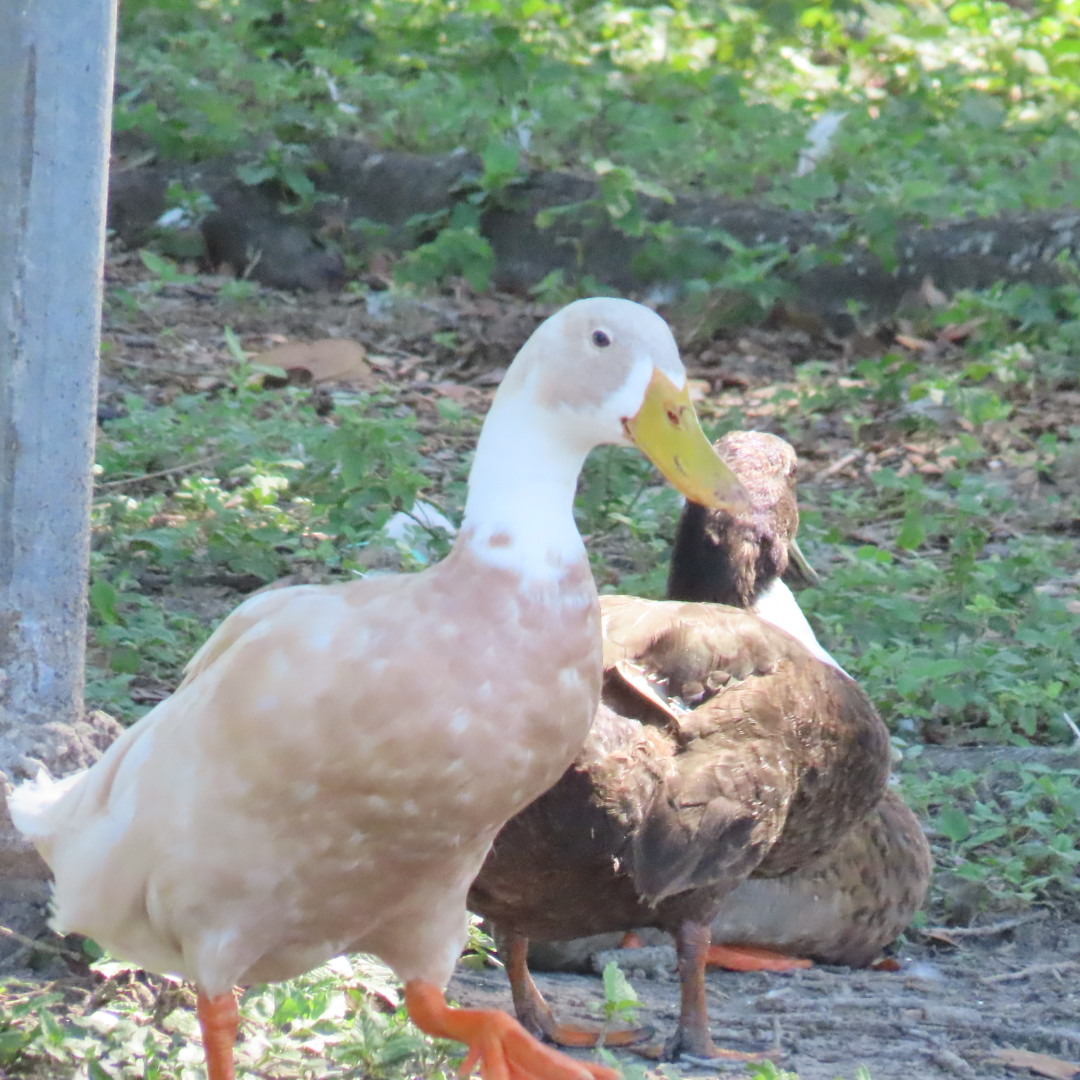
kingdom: Animalia
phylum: Chordata
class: Aves
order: Anseriformes
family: Anatidae
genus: Anas
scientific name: Anas platyrhynchos
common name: Mallard
